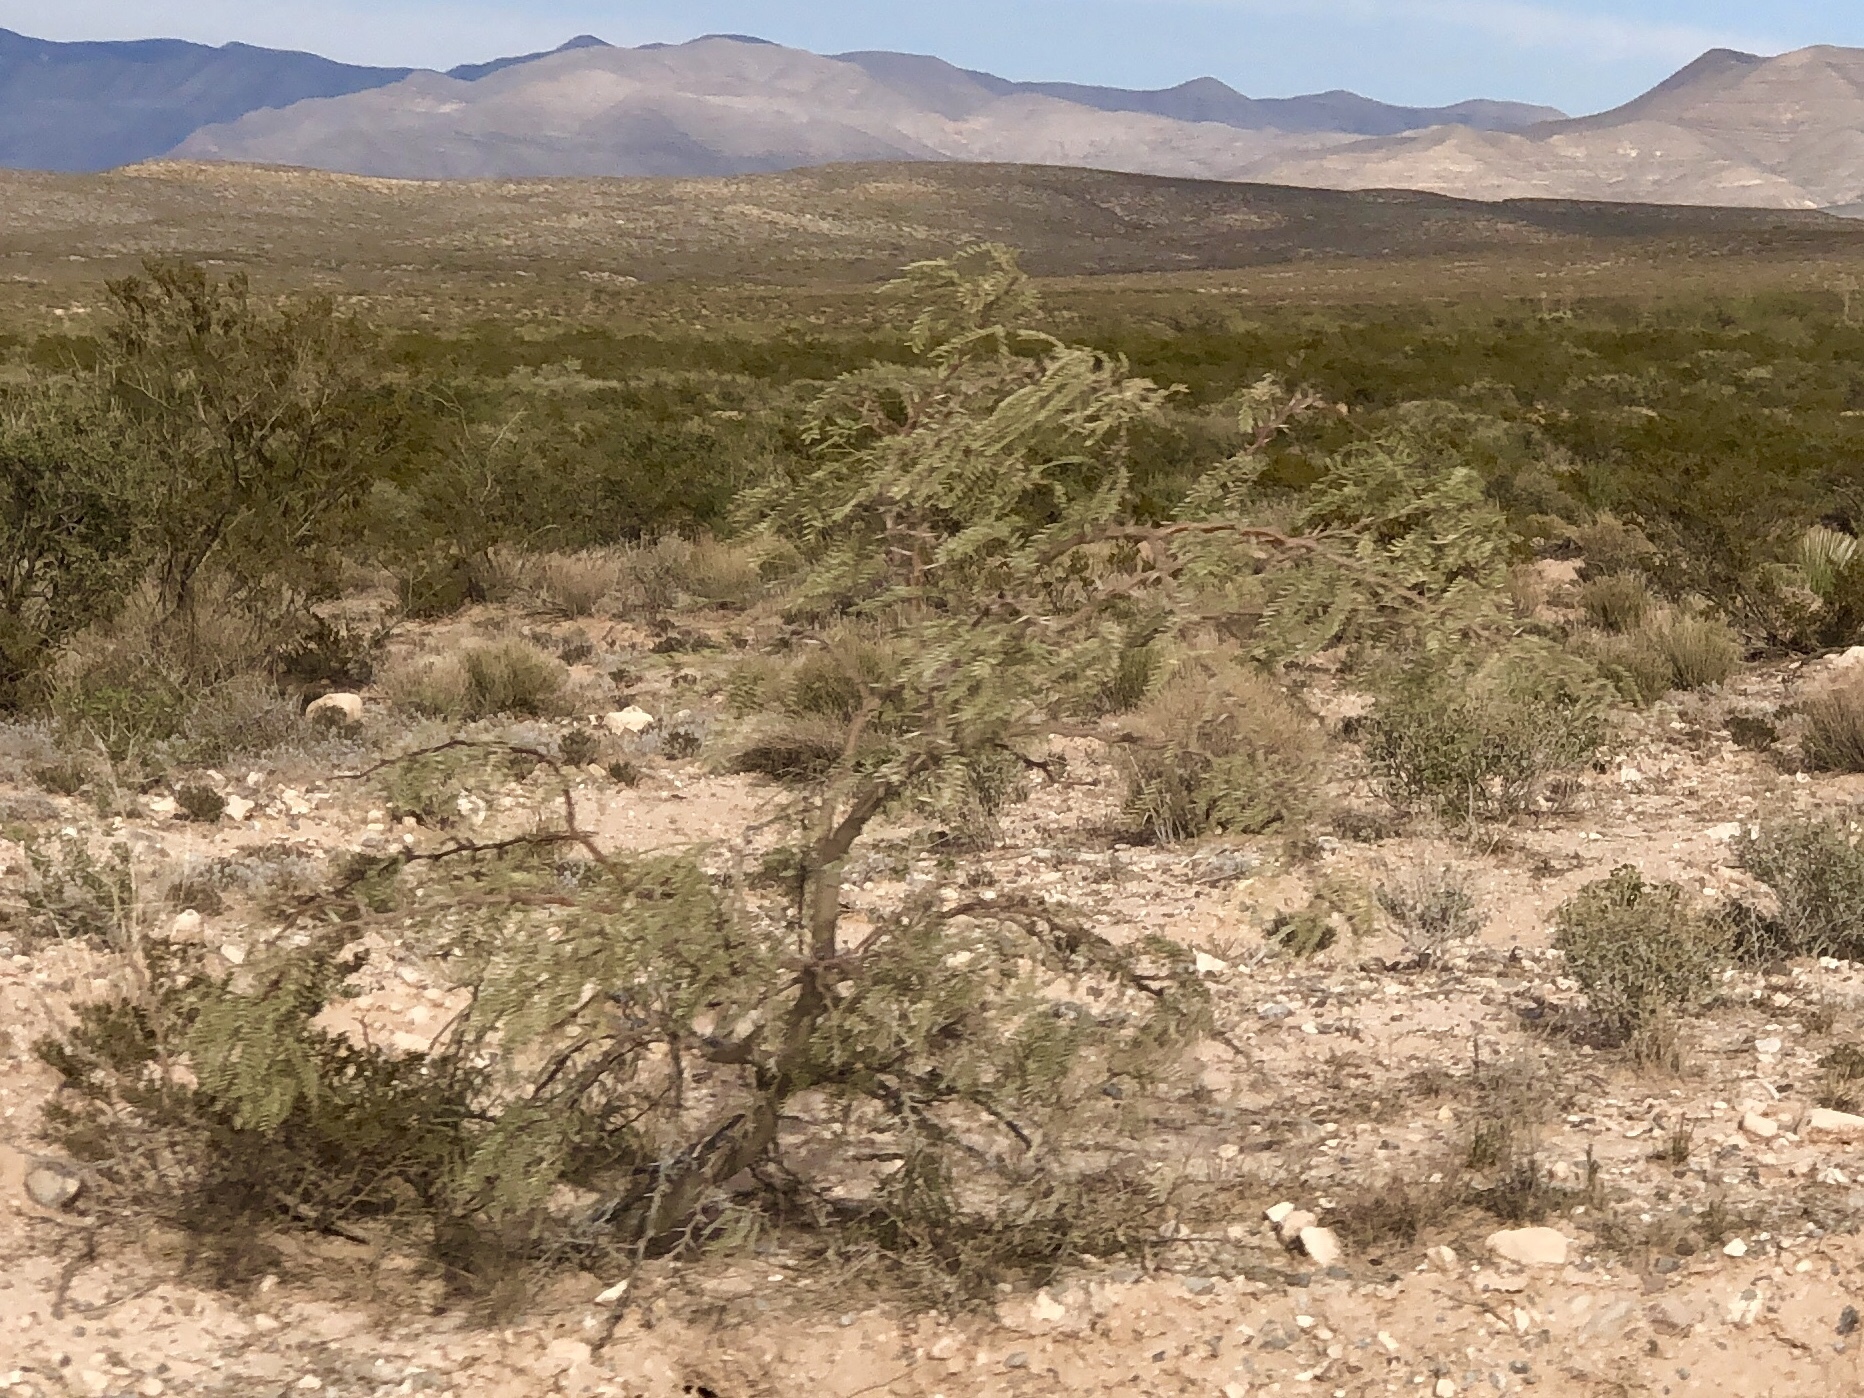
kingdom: Plantae
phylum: Tracheophyta
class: Magnoliopsida
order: Fabales
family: Fabaceae
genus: Prosopis
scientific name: Prosopis glandulosa
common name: Honey mesquite
